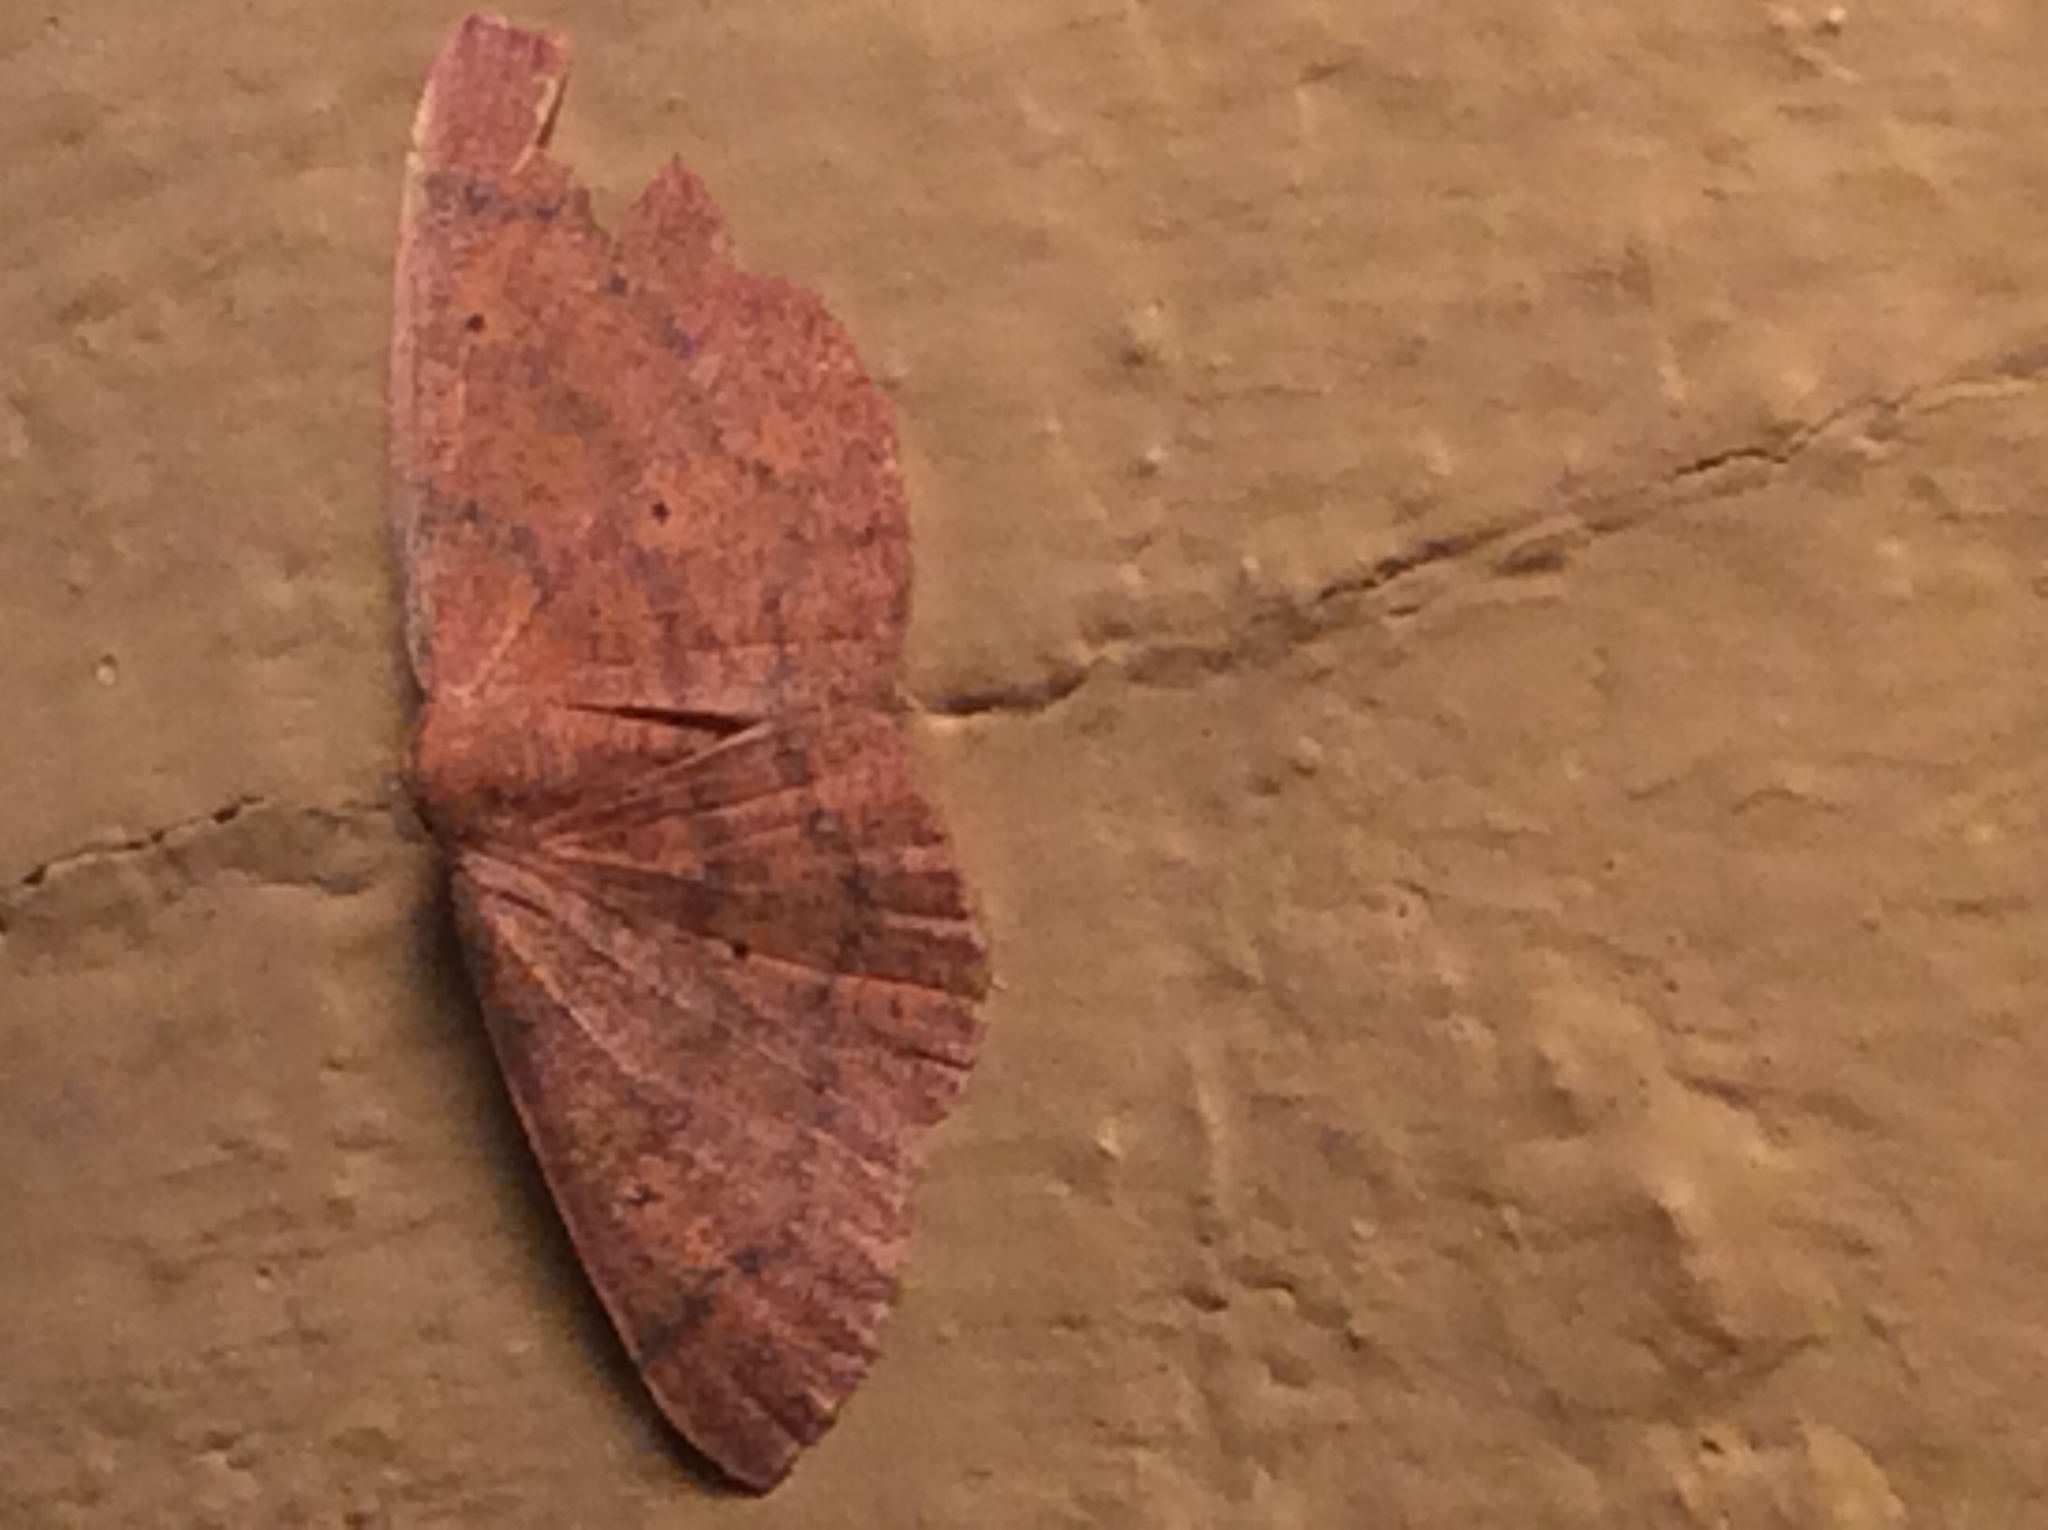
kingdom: Animalia
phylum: Arthropoda
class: Insecta
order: Lepidoptera
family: Geometridae
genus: Ilexia
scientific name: Ilexia intractata
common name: Black-dotted ruddy moth
